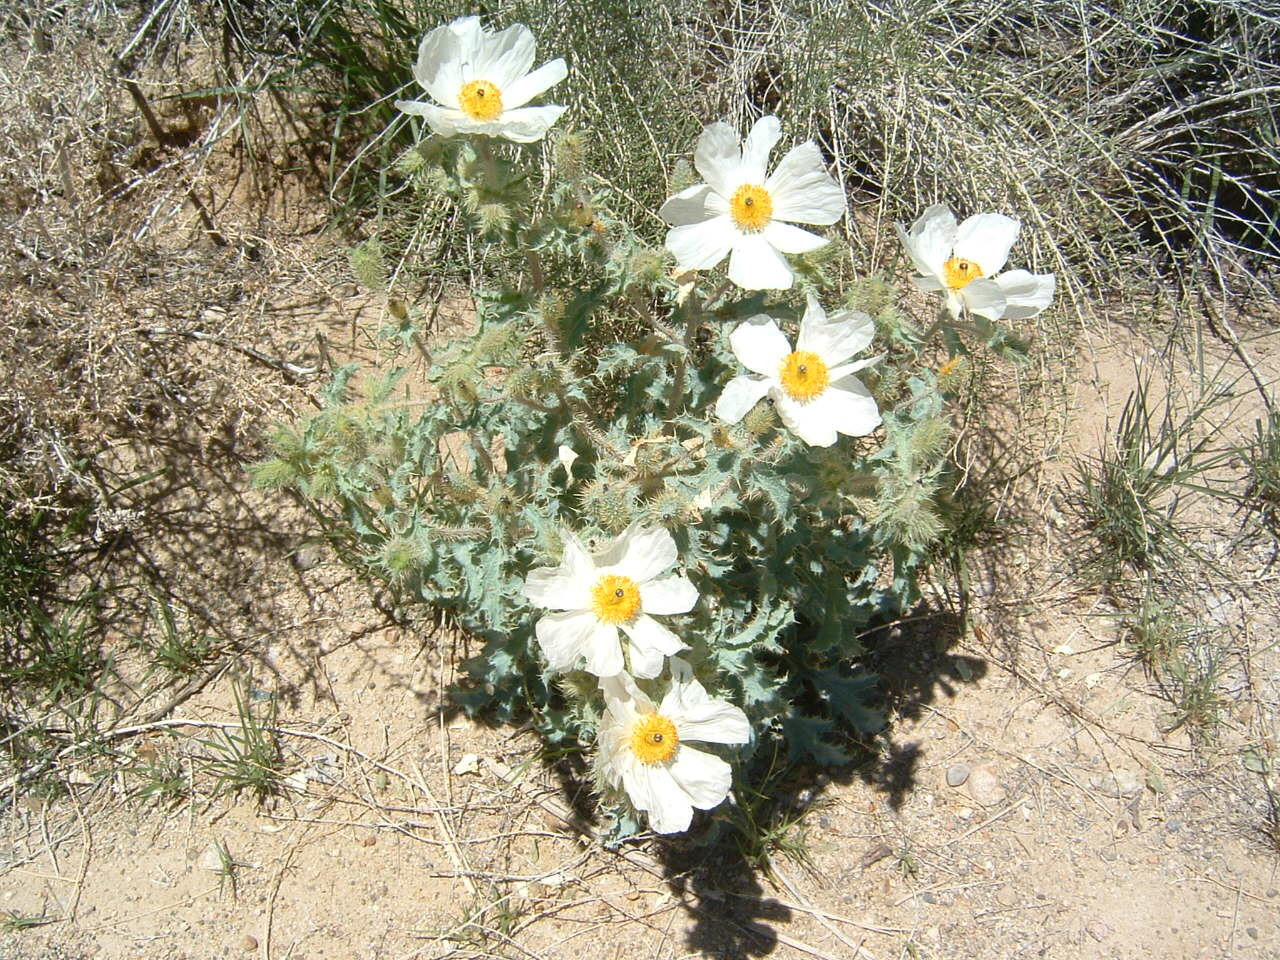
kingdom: Plantae
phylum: Tracheophyta
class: Magnoliopsida
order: Ranunculales
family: Papaveraceae
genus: Argemone
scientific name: Argemone munita
